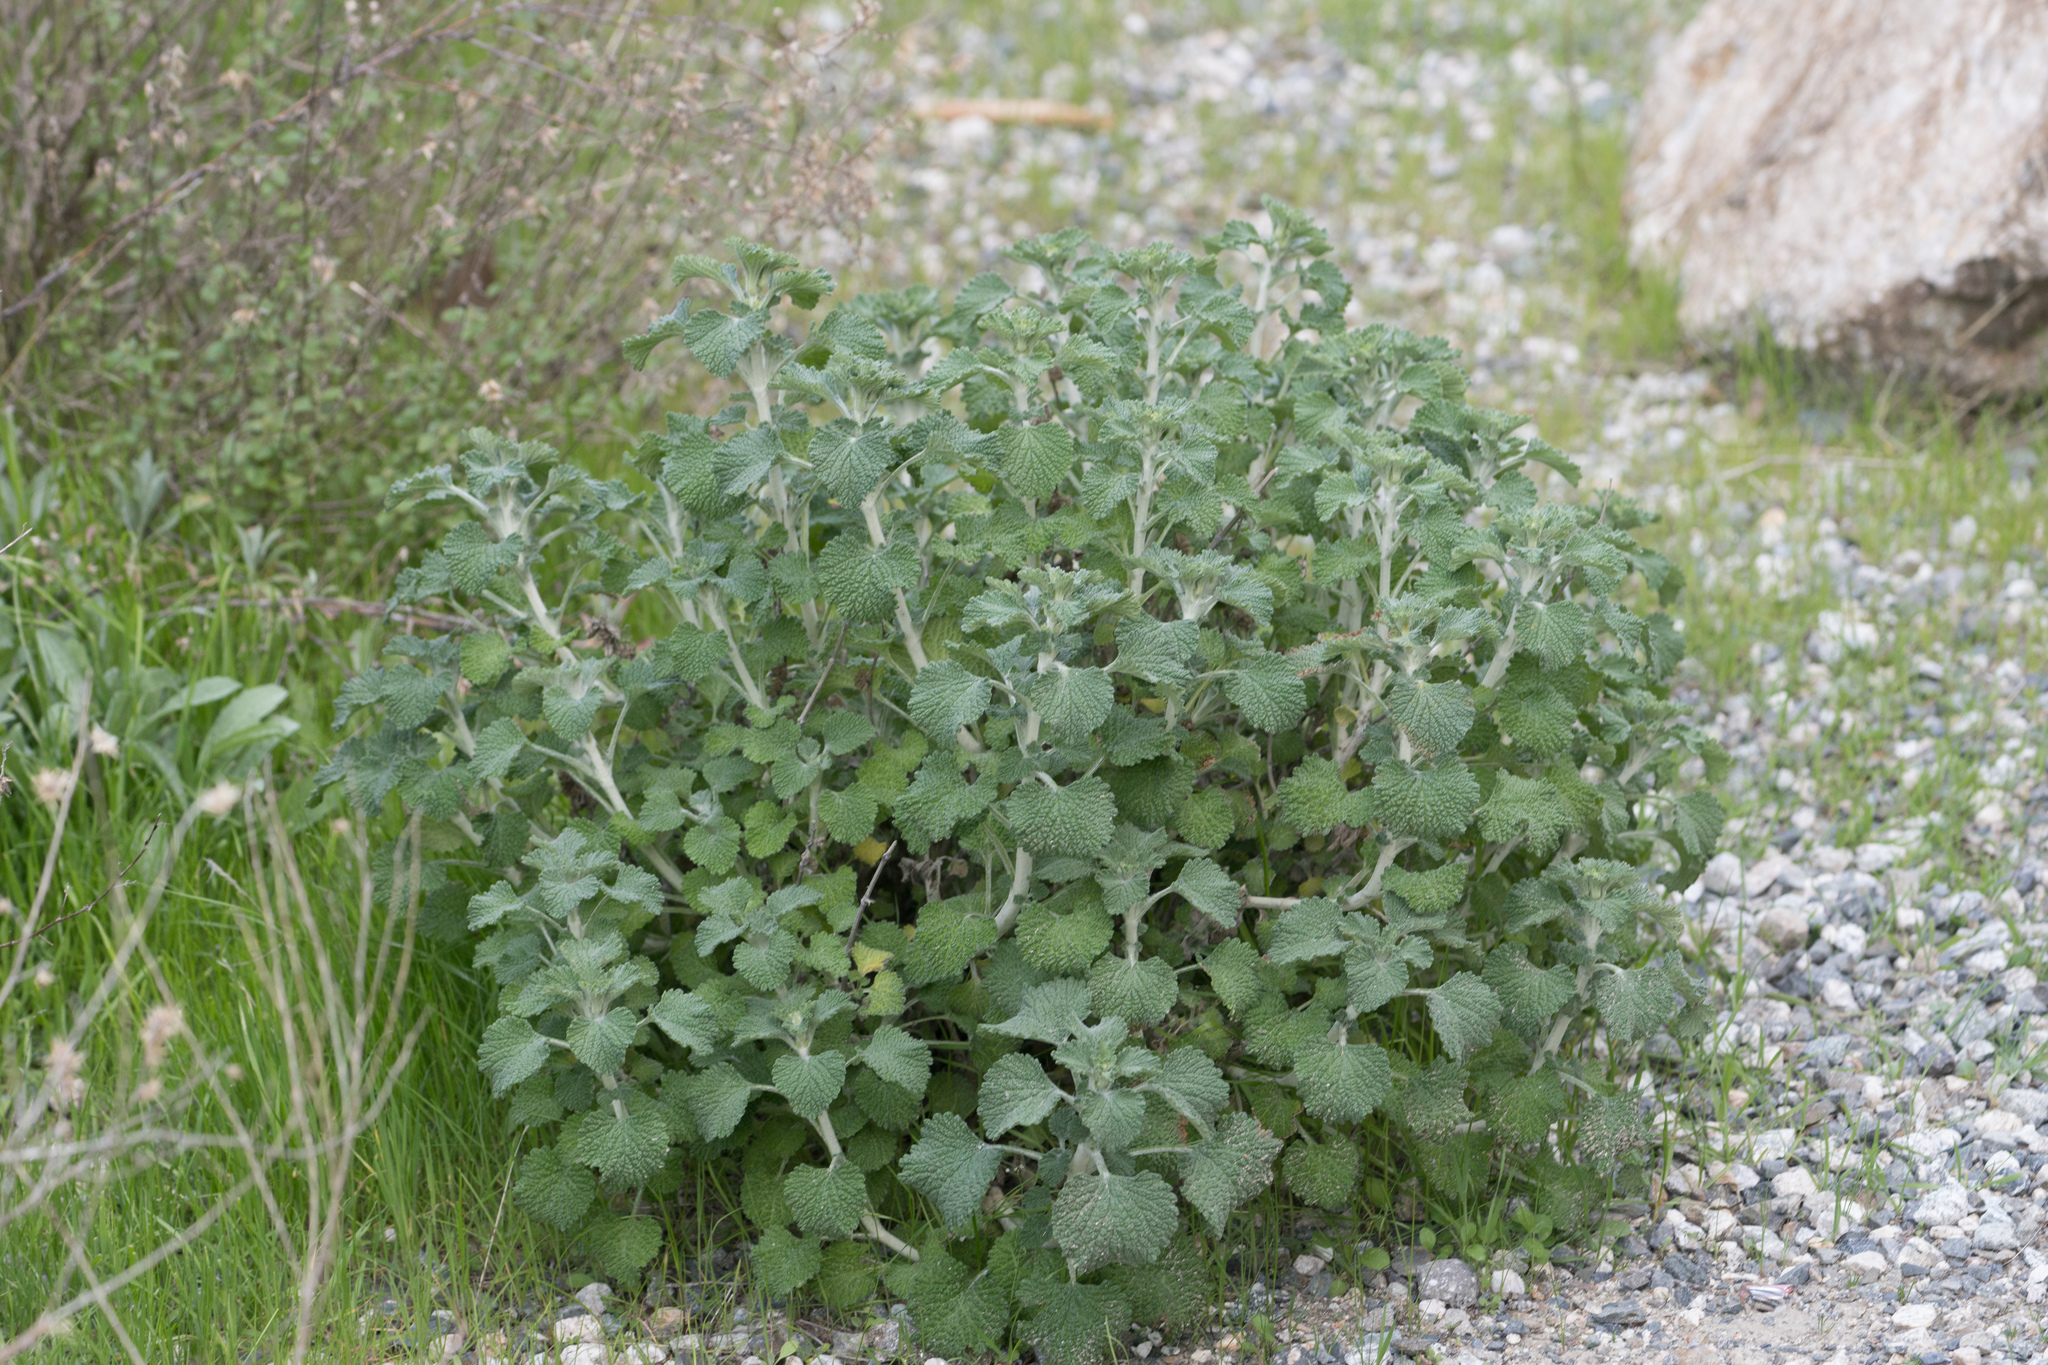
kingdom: Plantae
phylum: Tracheophyta
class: Magnoliopsida
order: Lamiales
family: Lamiaceae
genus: Marrubium
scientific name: Marrubium vulgare
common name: Horehound
